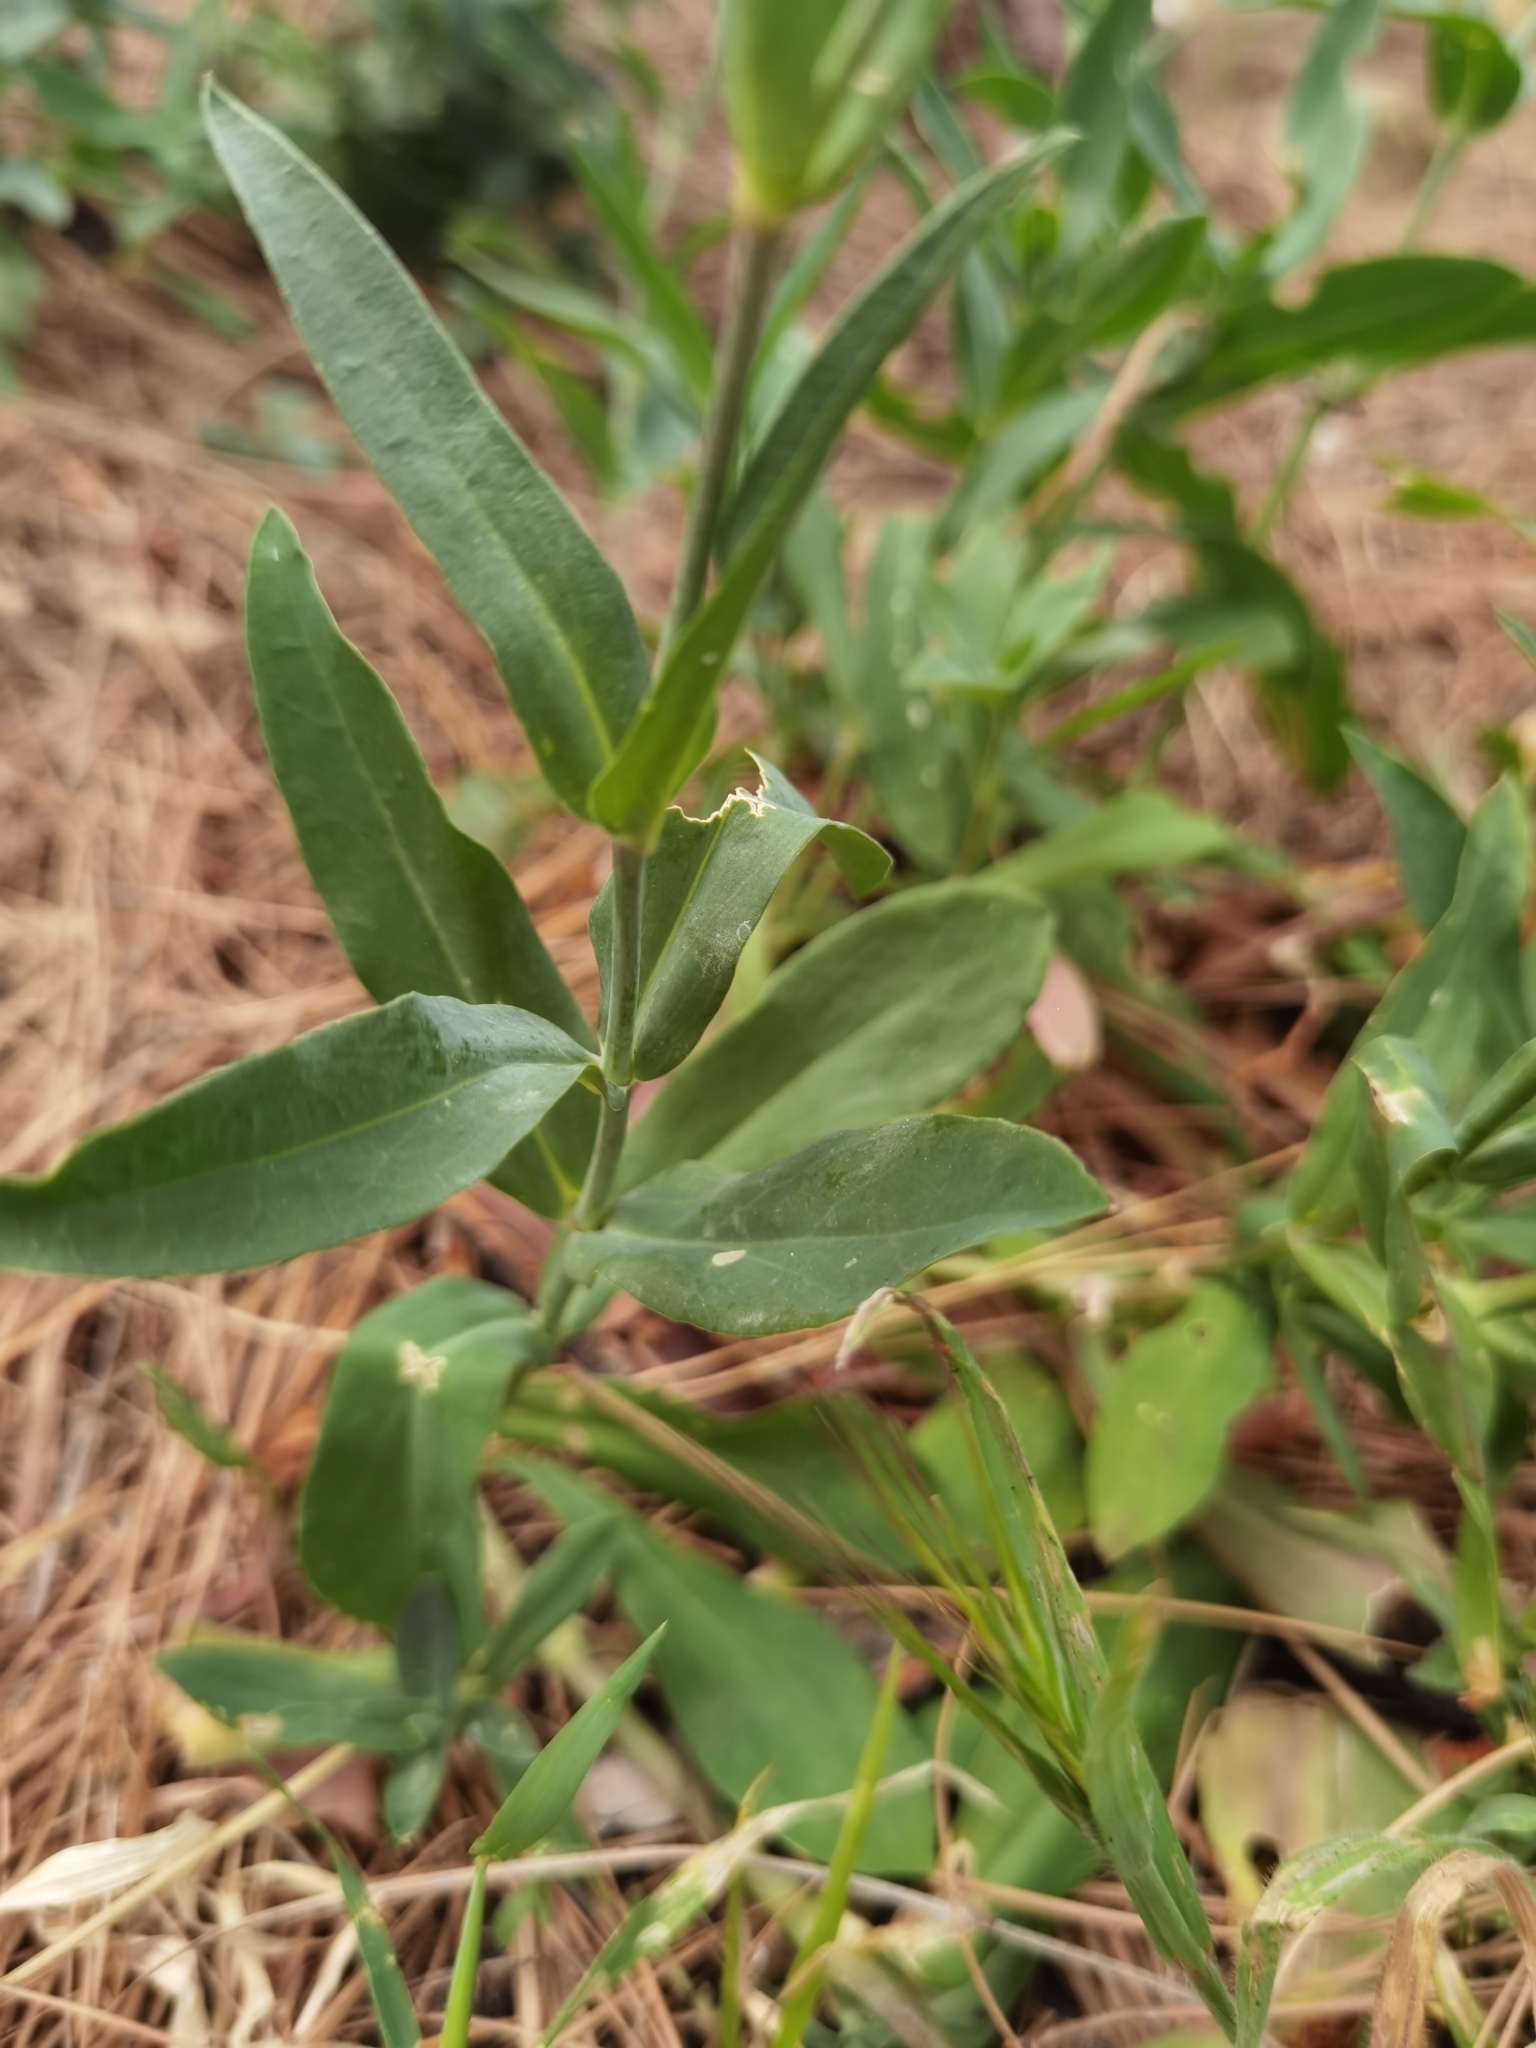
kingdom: Plantae
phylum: Tracheophyta
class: Magnoliopsida
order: Caryophyllales
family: Caryophyllaceae
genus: Silene
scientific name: Silene vulgaris
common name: Bladder campion
